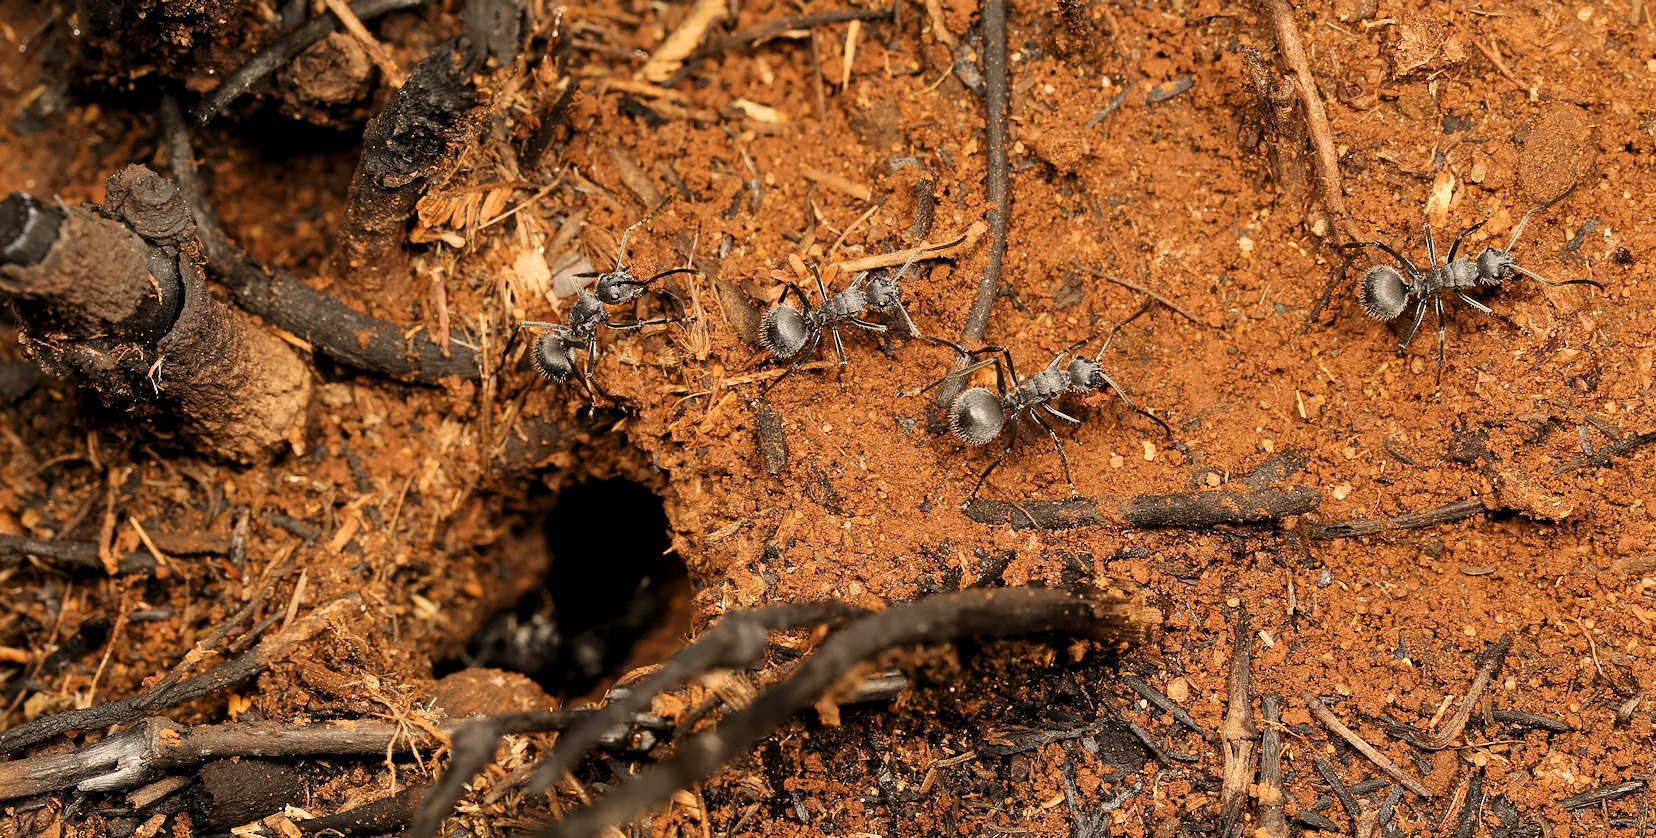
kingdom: Animalia
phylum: Arthropoda
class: Insecta
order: Hymenoptera
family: Formicidae
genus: Polyrhachis
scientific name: Polyrhachis schistacea
